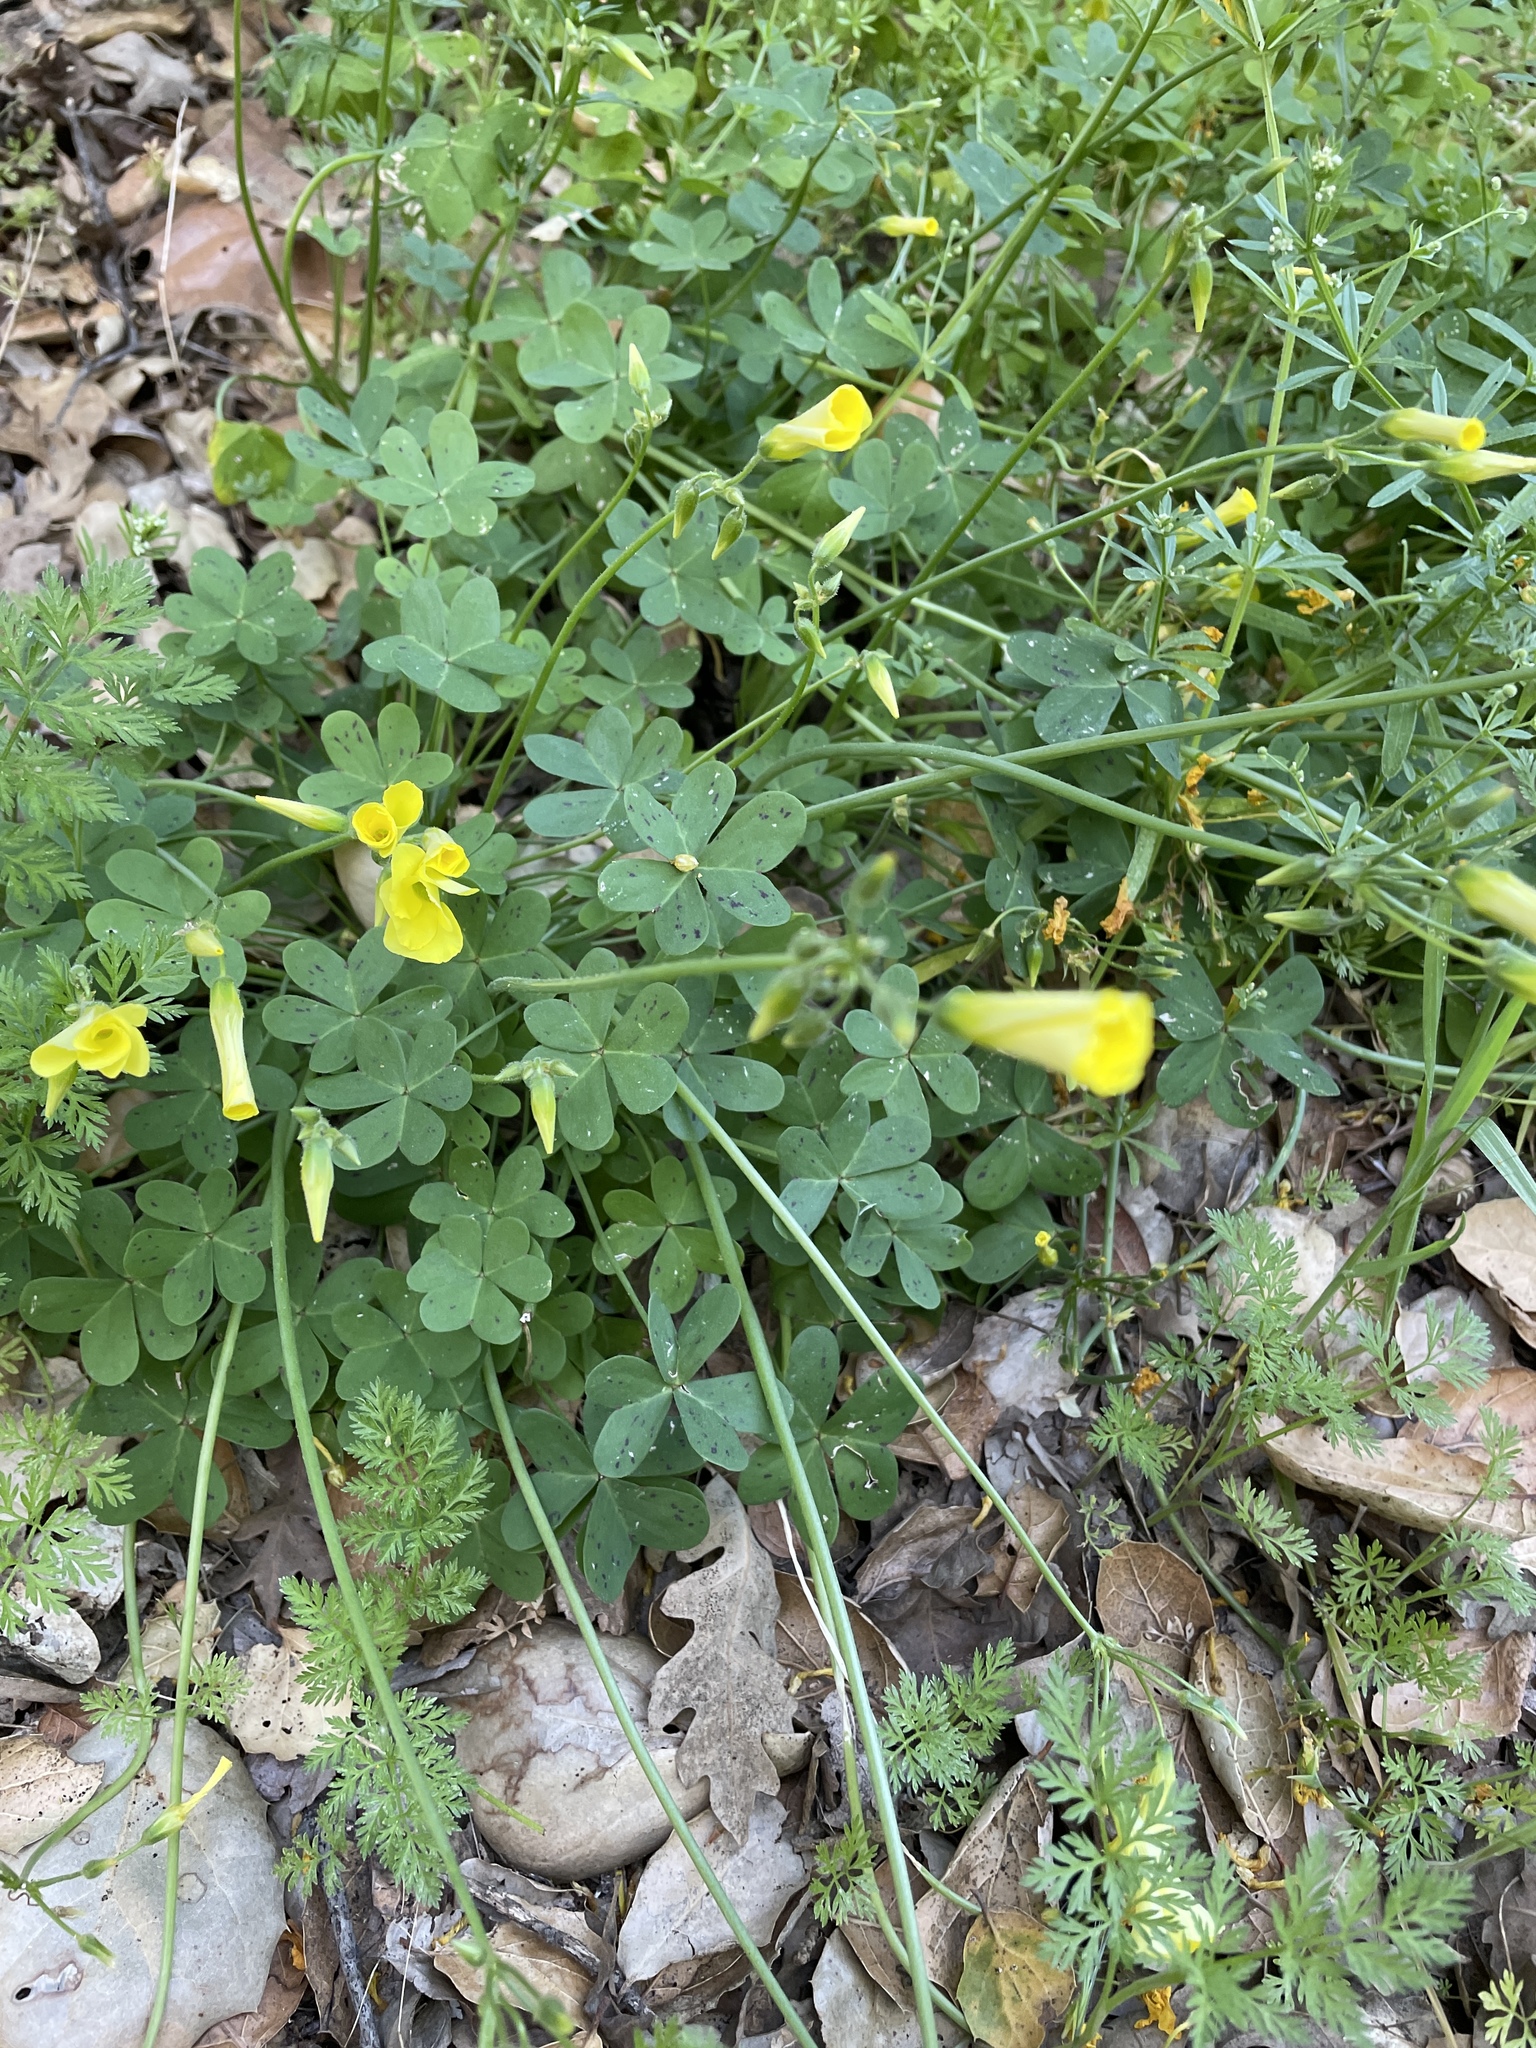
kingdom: Plantae
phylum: Tracheophyta
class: Magnoliopsida
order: Oxalidales
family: Oxalidaceae
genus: Oxalis
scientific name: Oxalis pes-caprae
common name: Bermuda-buttercup
